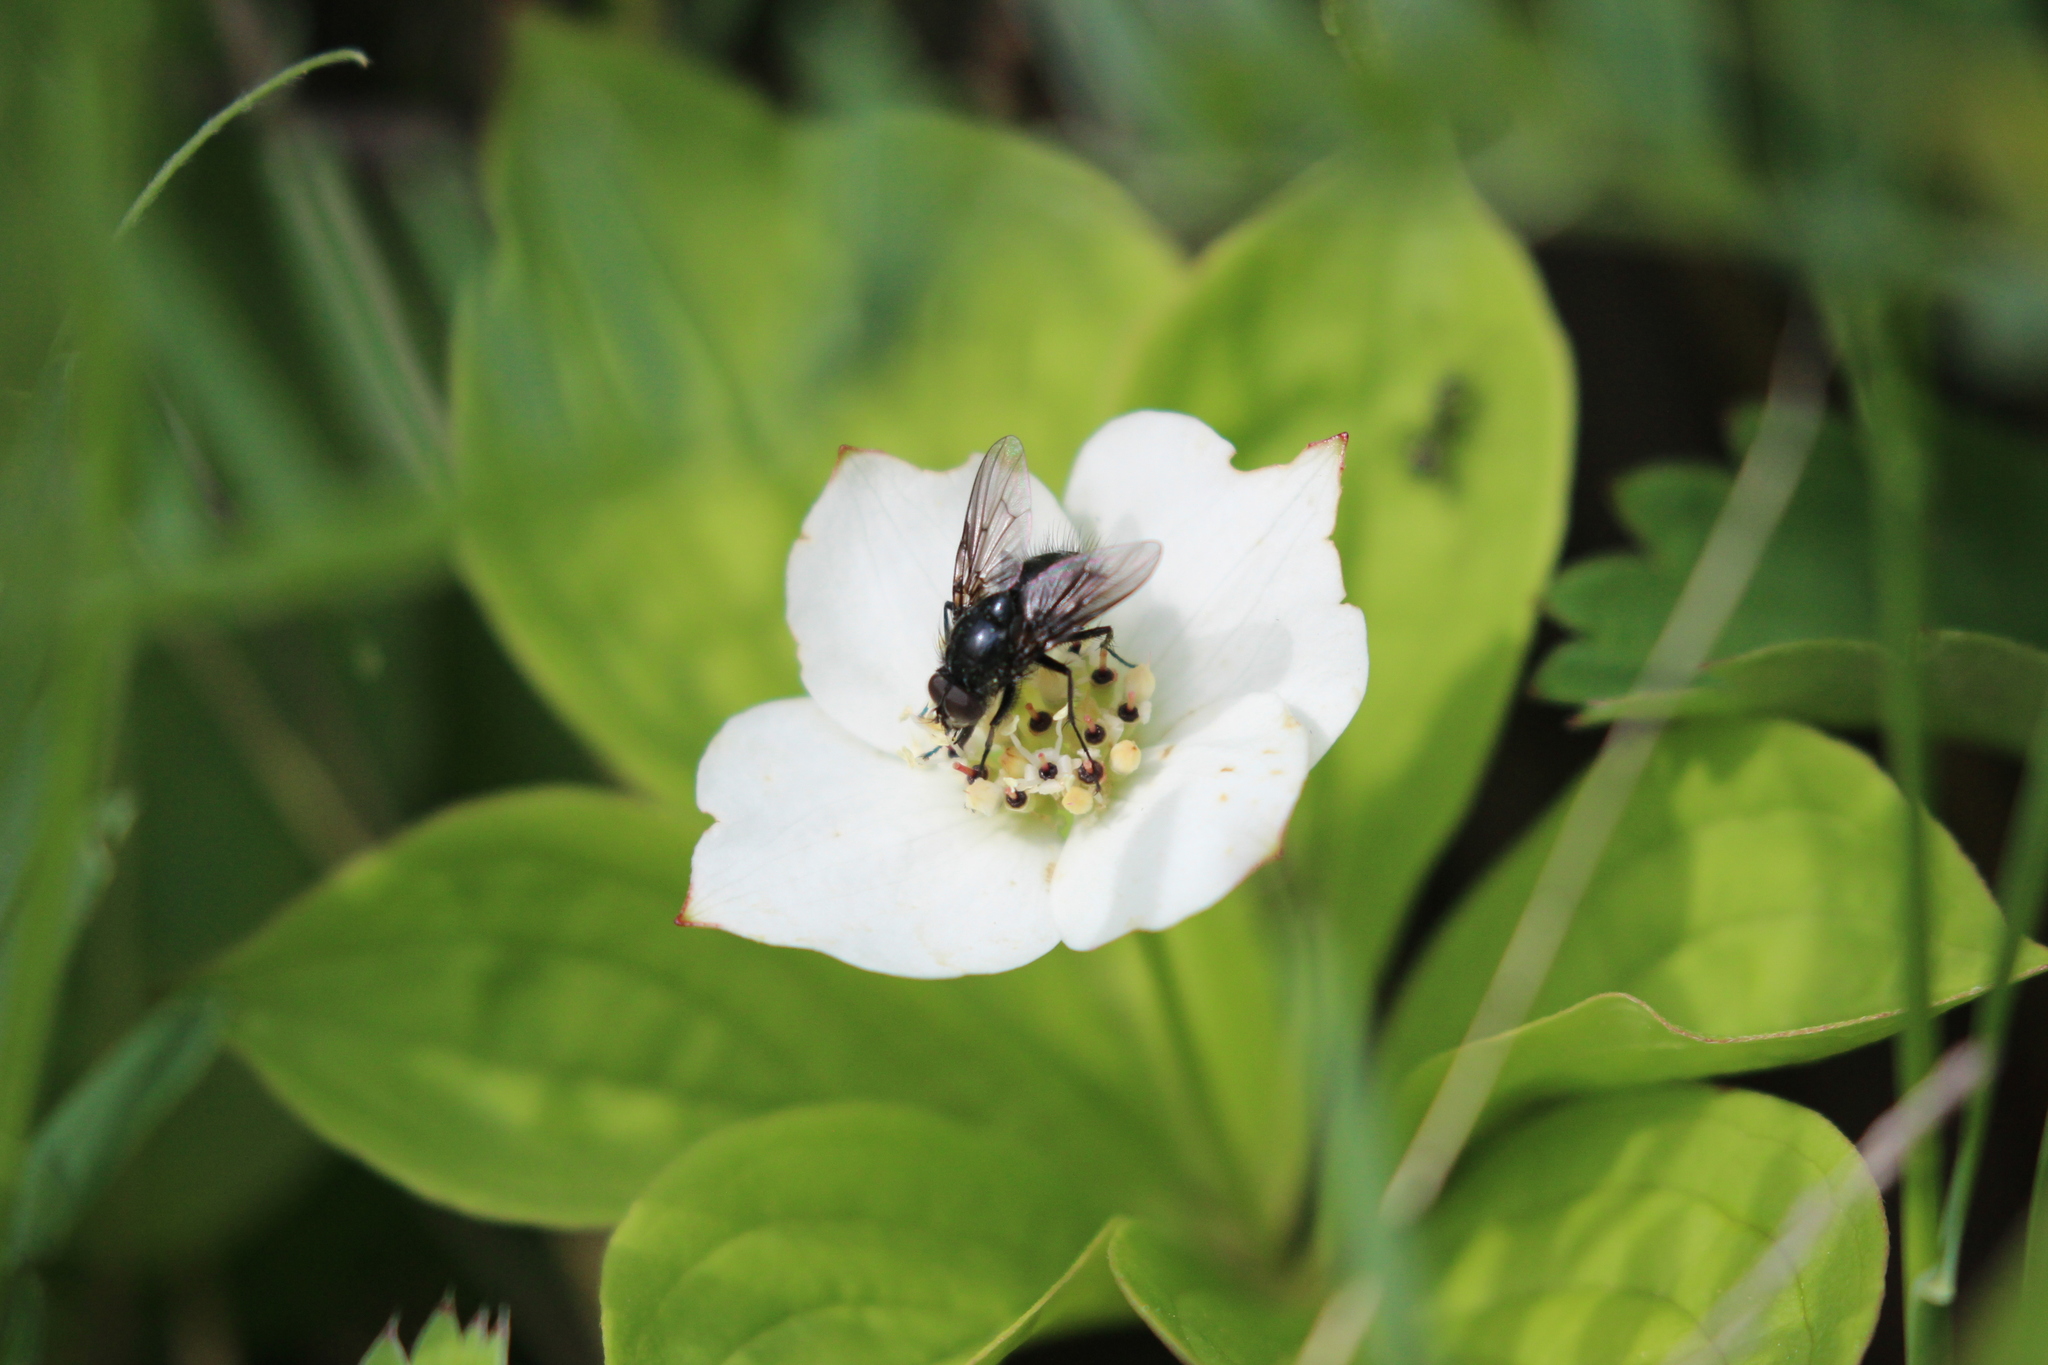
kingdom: Plantae
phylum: Tracheophyta
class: Magnoliopsida
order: Cornales
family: Cornaceae
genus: Cornus
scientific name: Cornus canadensis
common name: Creeping dogwood
